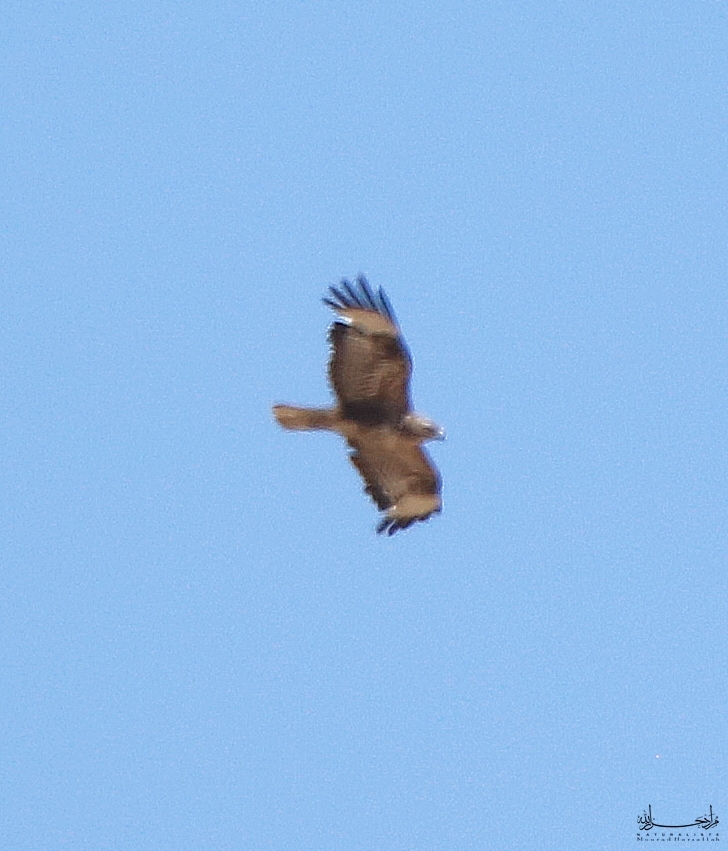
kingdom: Animalia
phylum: Chordata
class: Aves
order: Accipitriformes
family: Accipitridae
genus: Buteo
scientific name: Buteo rufinus
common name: Long-legged buzzard
